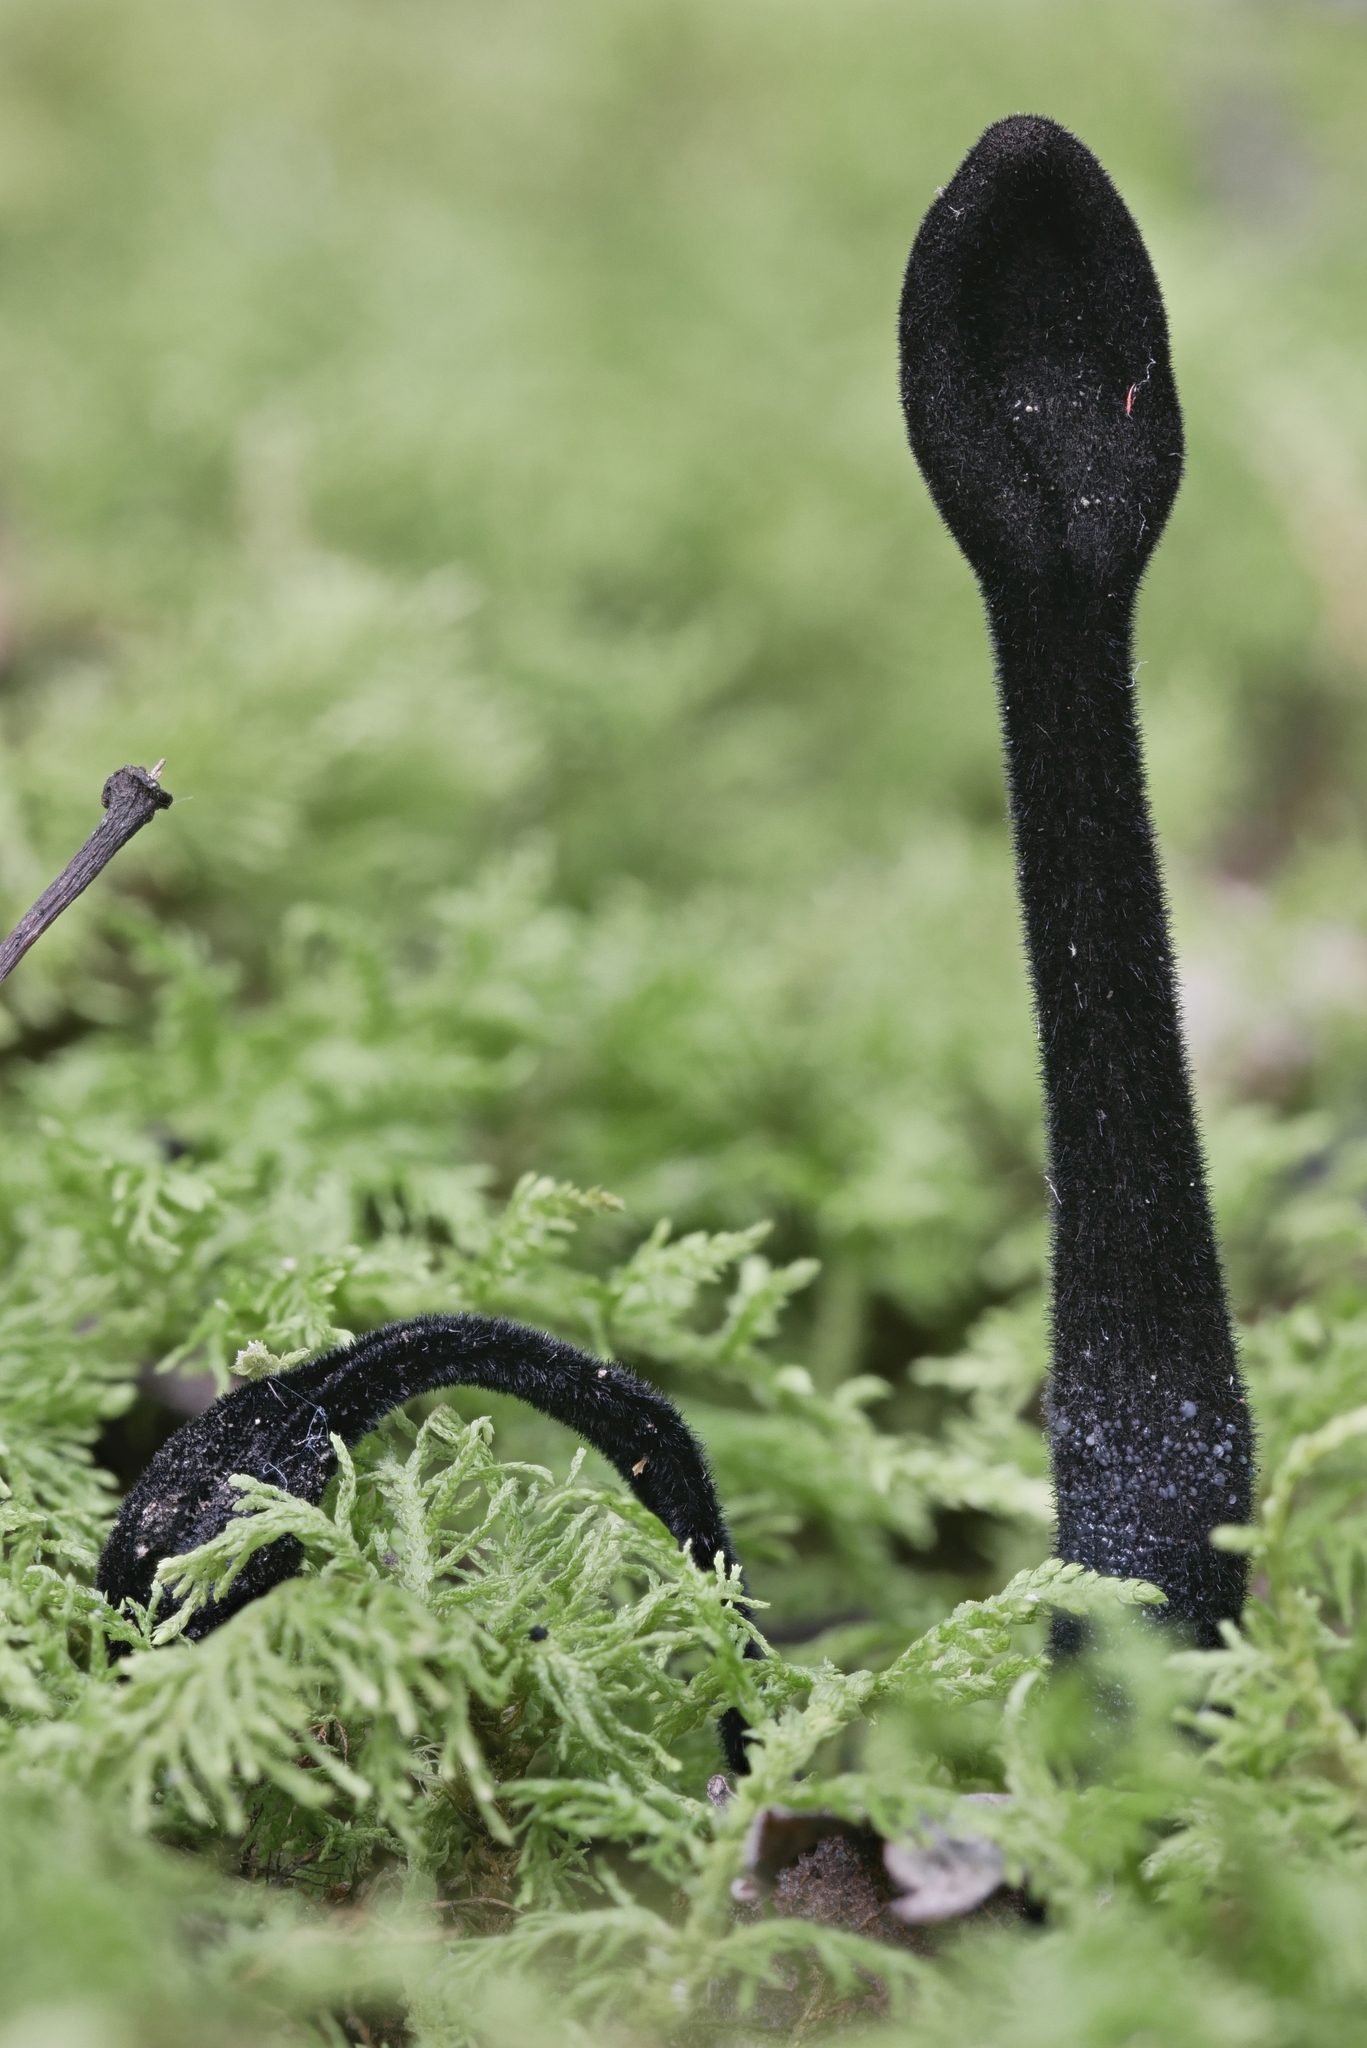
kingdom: Fungi
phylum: Ascomycota
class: Geoglossomycetes
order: Geoglossales
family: Geoglossaceae
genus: Trichoglossum
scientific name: Trichoglossum farlowii
